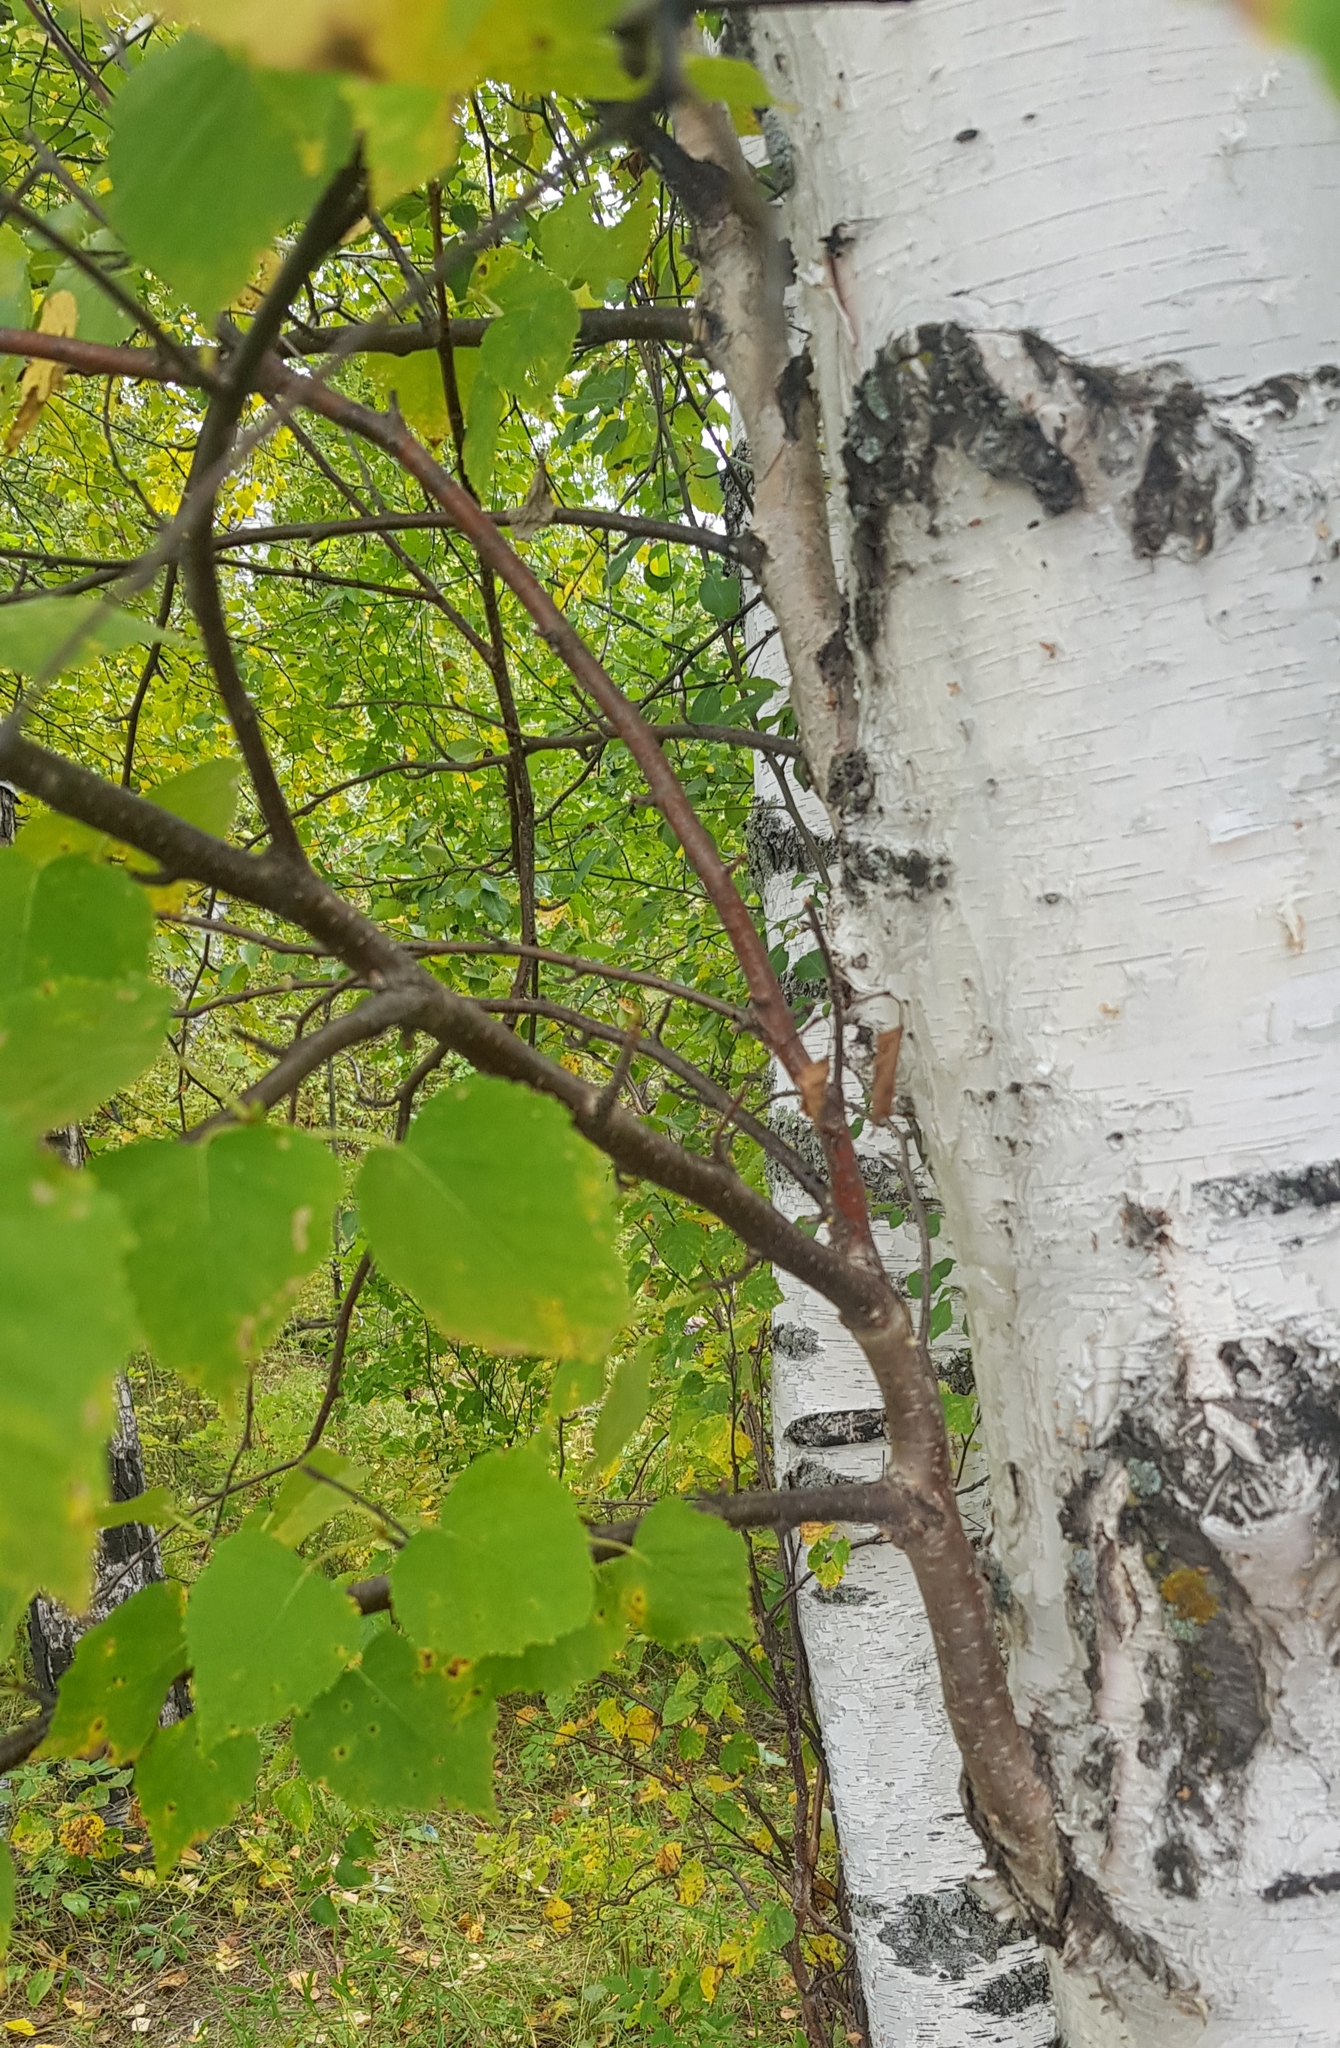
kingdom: Plantae
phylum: Tracheophyta
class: Magnoliopsida
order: Fagales
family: Betulaceae
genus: Betula
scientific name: Betula pendula
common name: Silver birch
